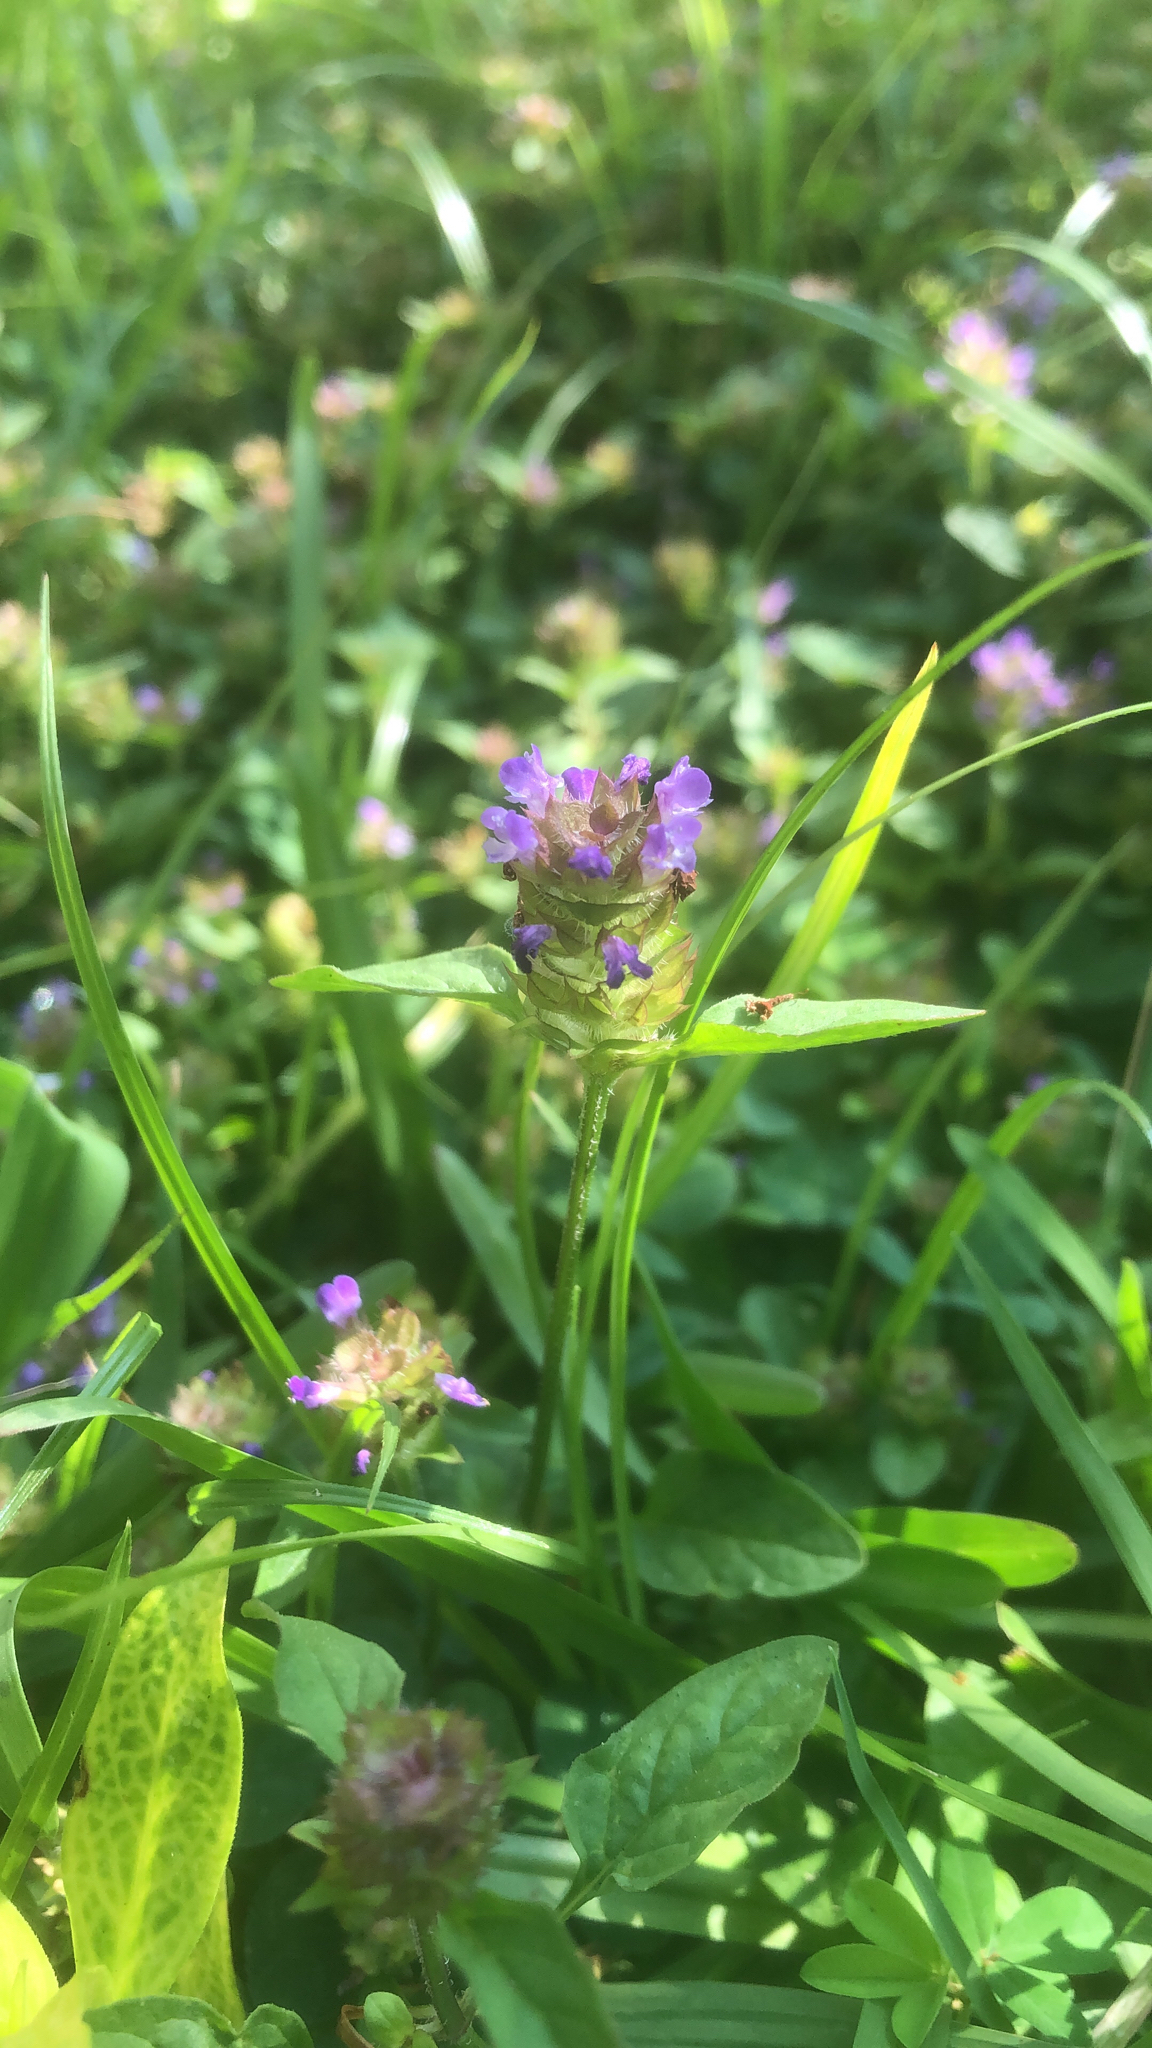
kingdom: Plantae
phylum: Tracheophyta
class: Magnoliopsida
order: Lamiales
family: Lamiaceae
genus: Prunella
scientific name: Prunella vulgaris
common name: Heal-all
